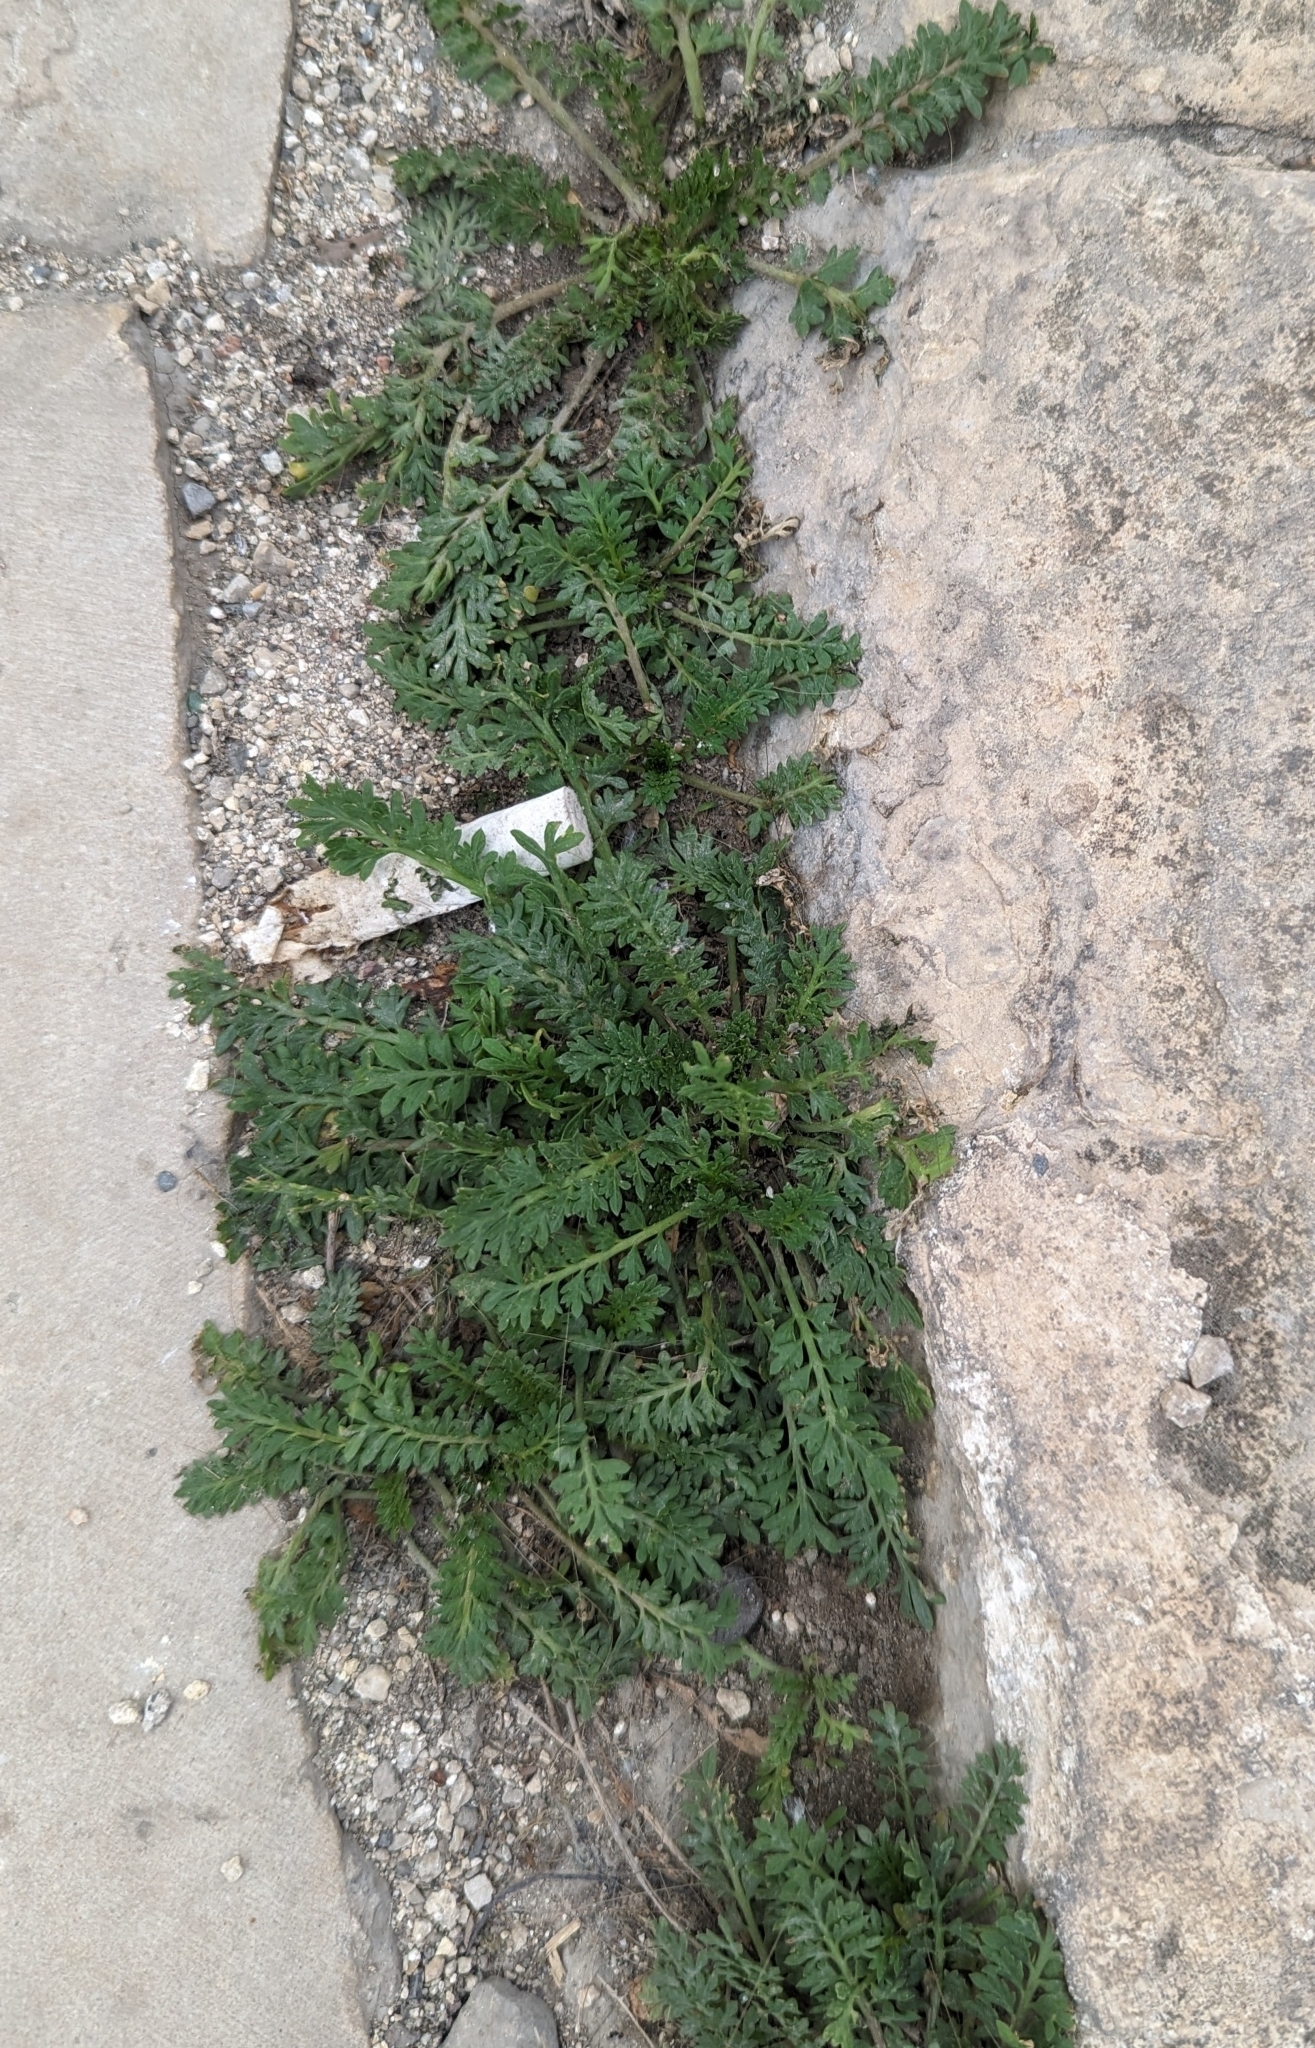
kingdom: Plantae
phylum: Tracheophyta
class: Magnoliopsida
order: Brassicales
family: Brassicaceae
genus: Lepidium
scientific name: Lepidium didymum
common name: Lesser swinecress
